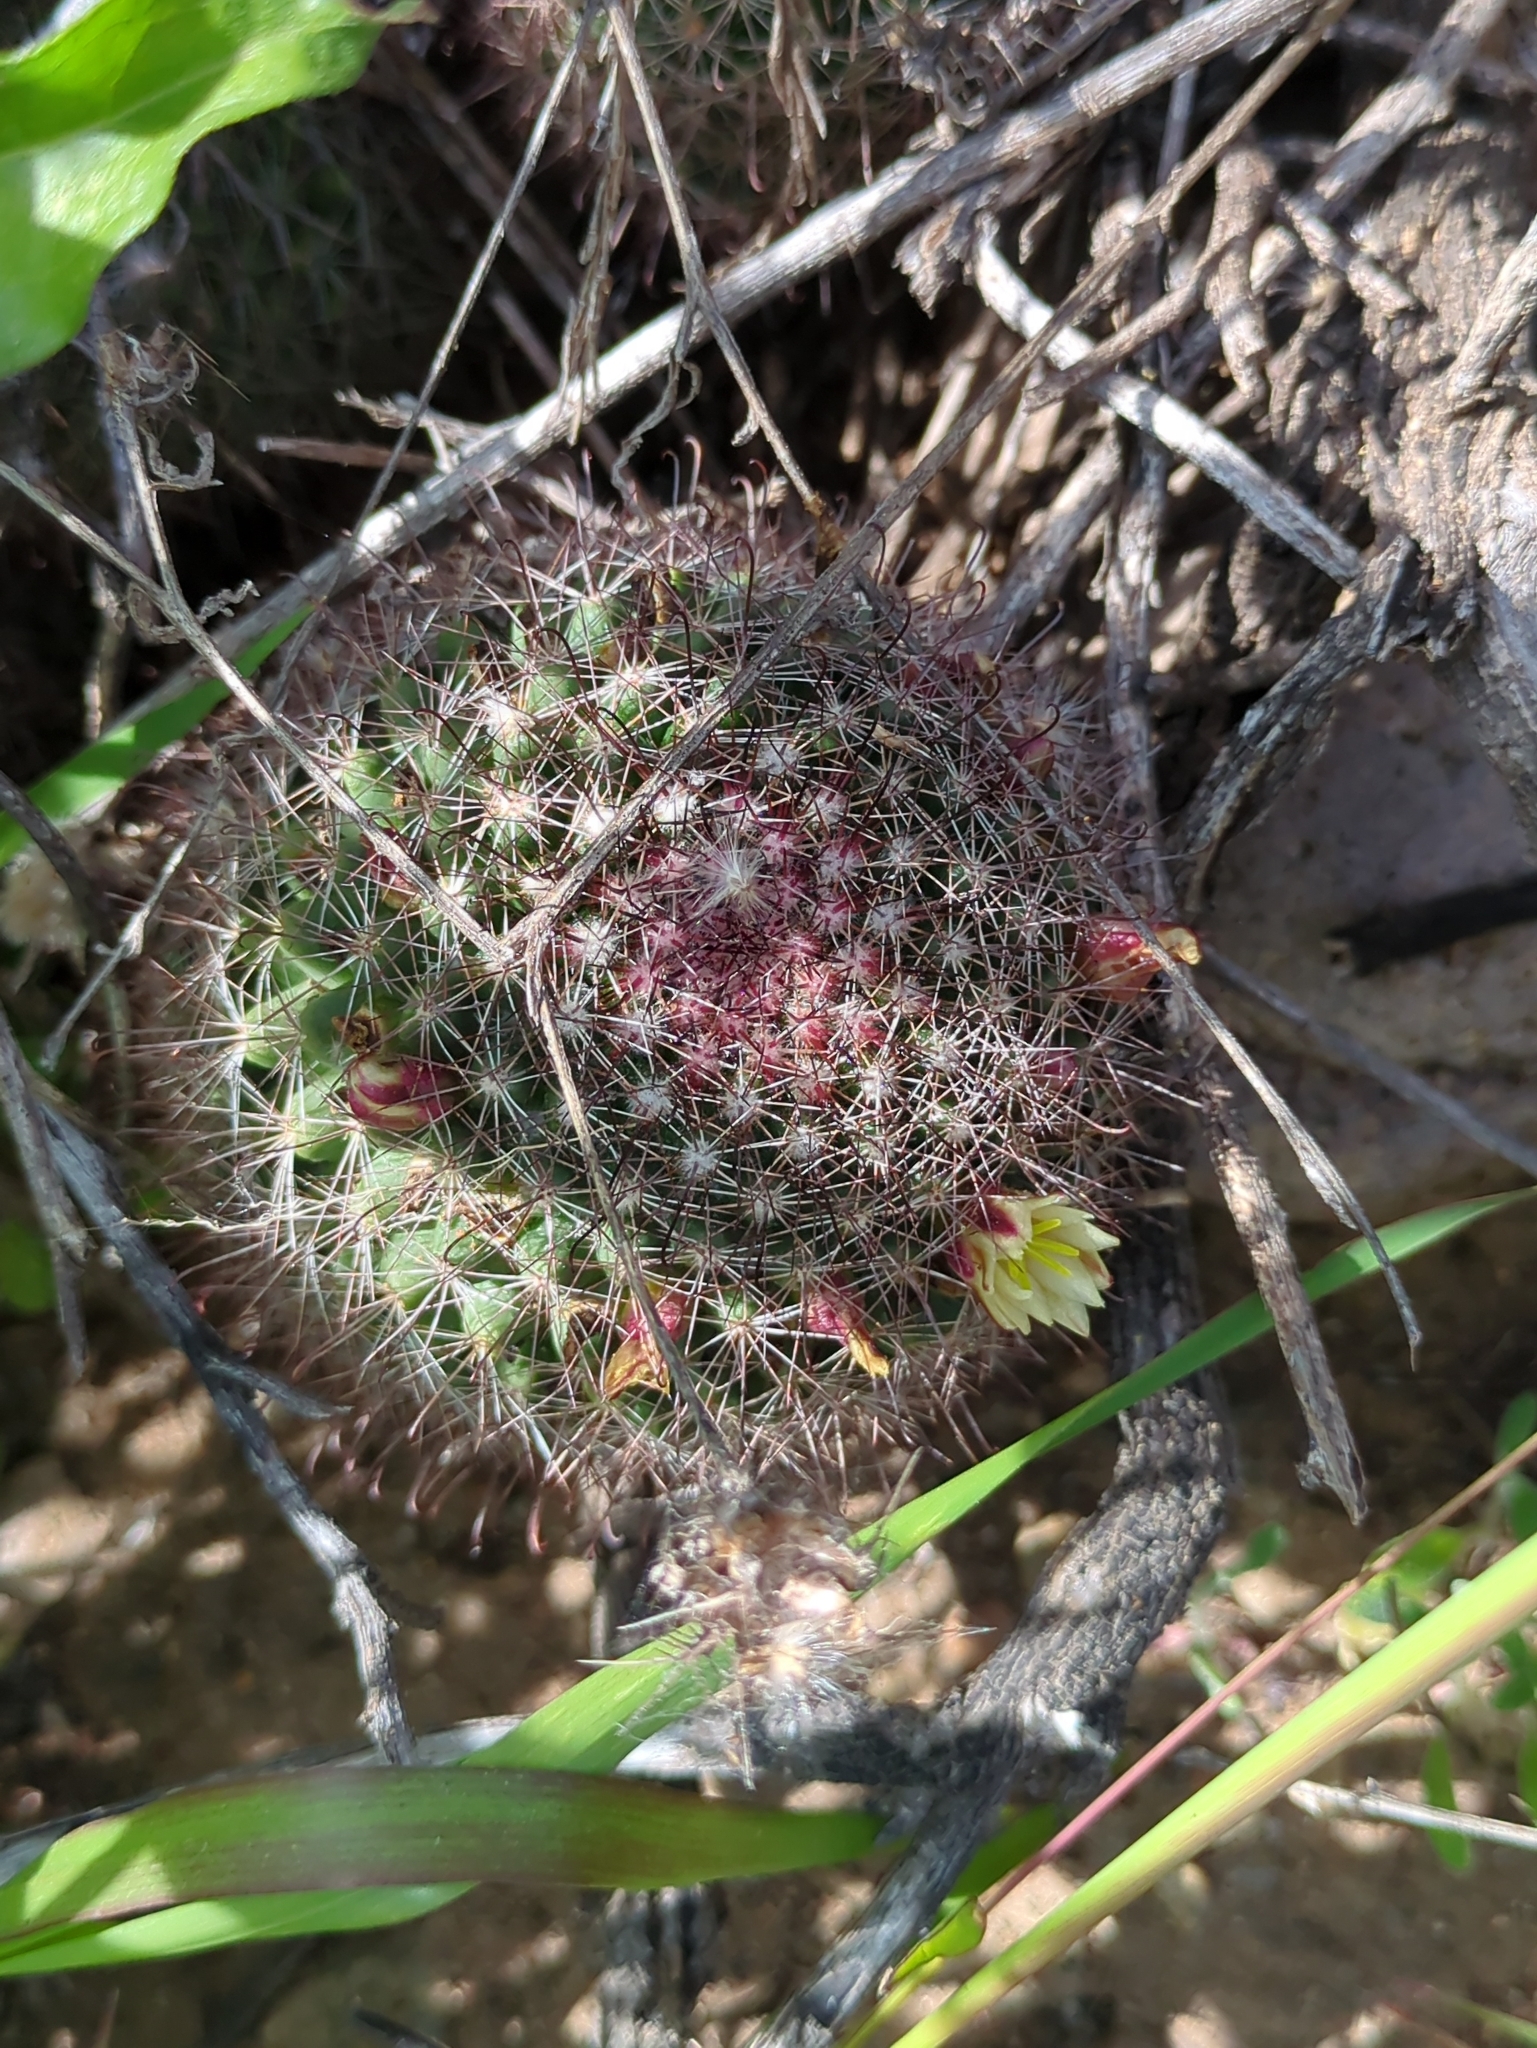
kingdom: Plantae
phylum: Tracheophyta
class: Magnoliopsida
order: Caryophyllales
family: Cactaceae
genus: Cochemiea
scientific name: Cochemiea dioica
